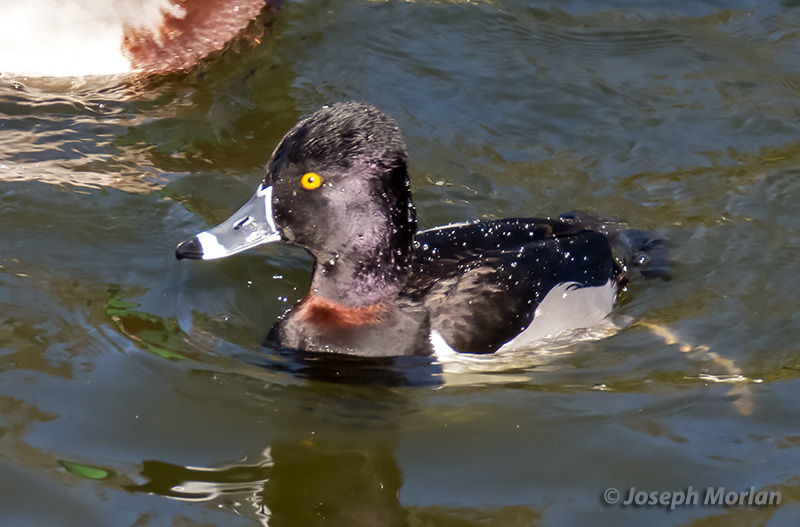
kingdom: Animalia
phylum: Chordata
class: Aves
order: Anseriformes
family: Anatidae
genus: Aythya
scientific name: Aythya collaris
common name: Ring-necked duck
